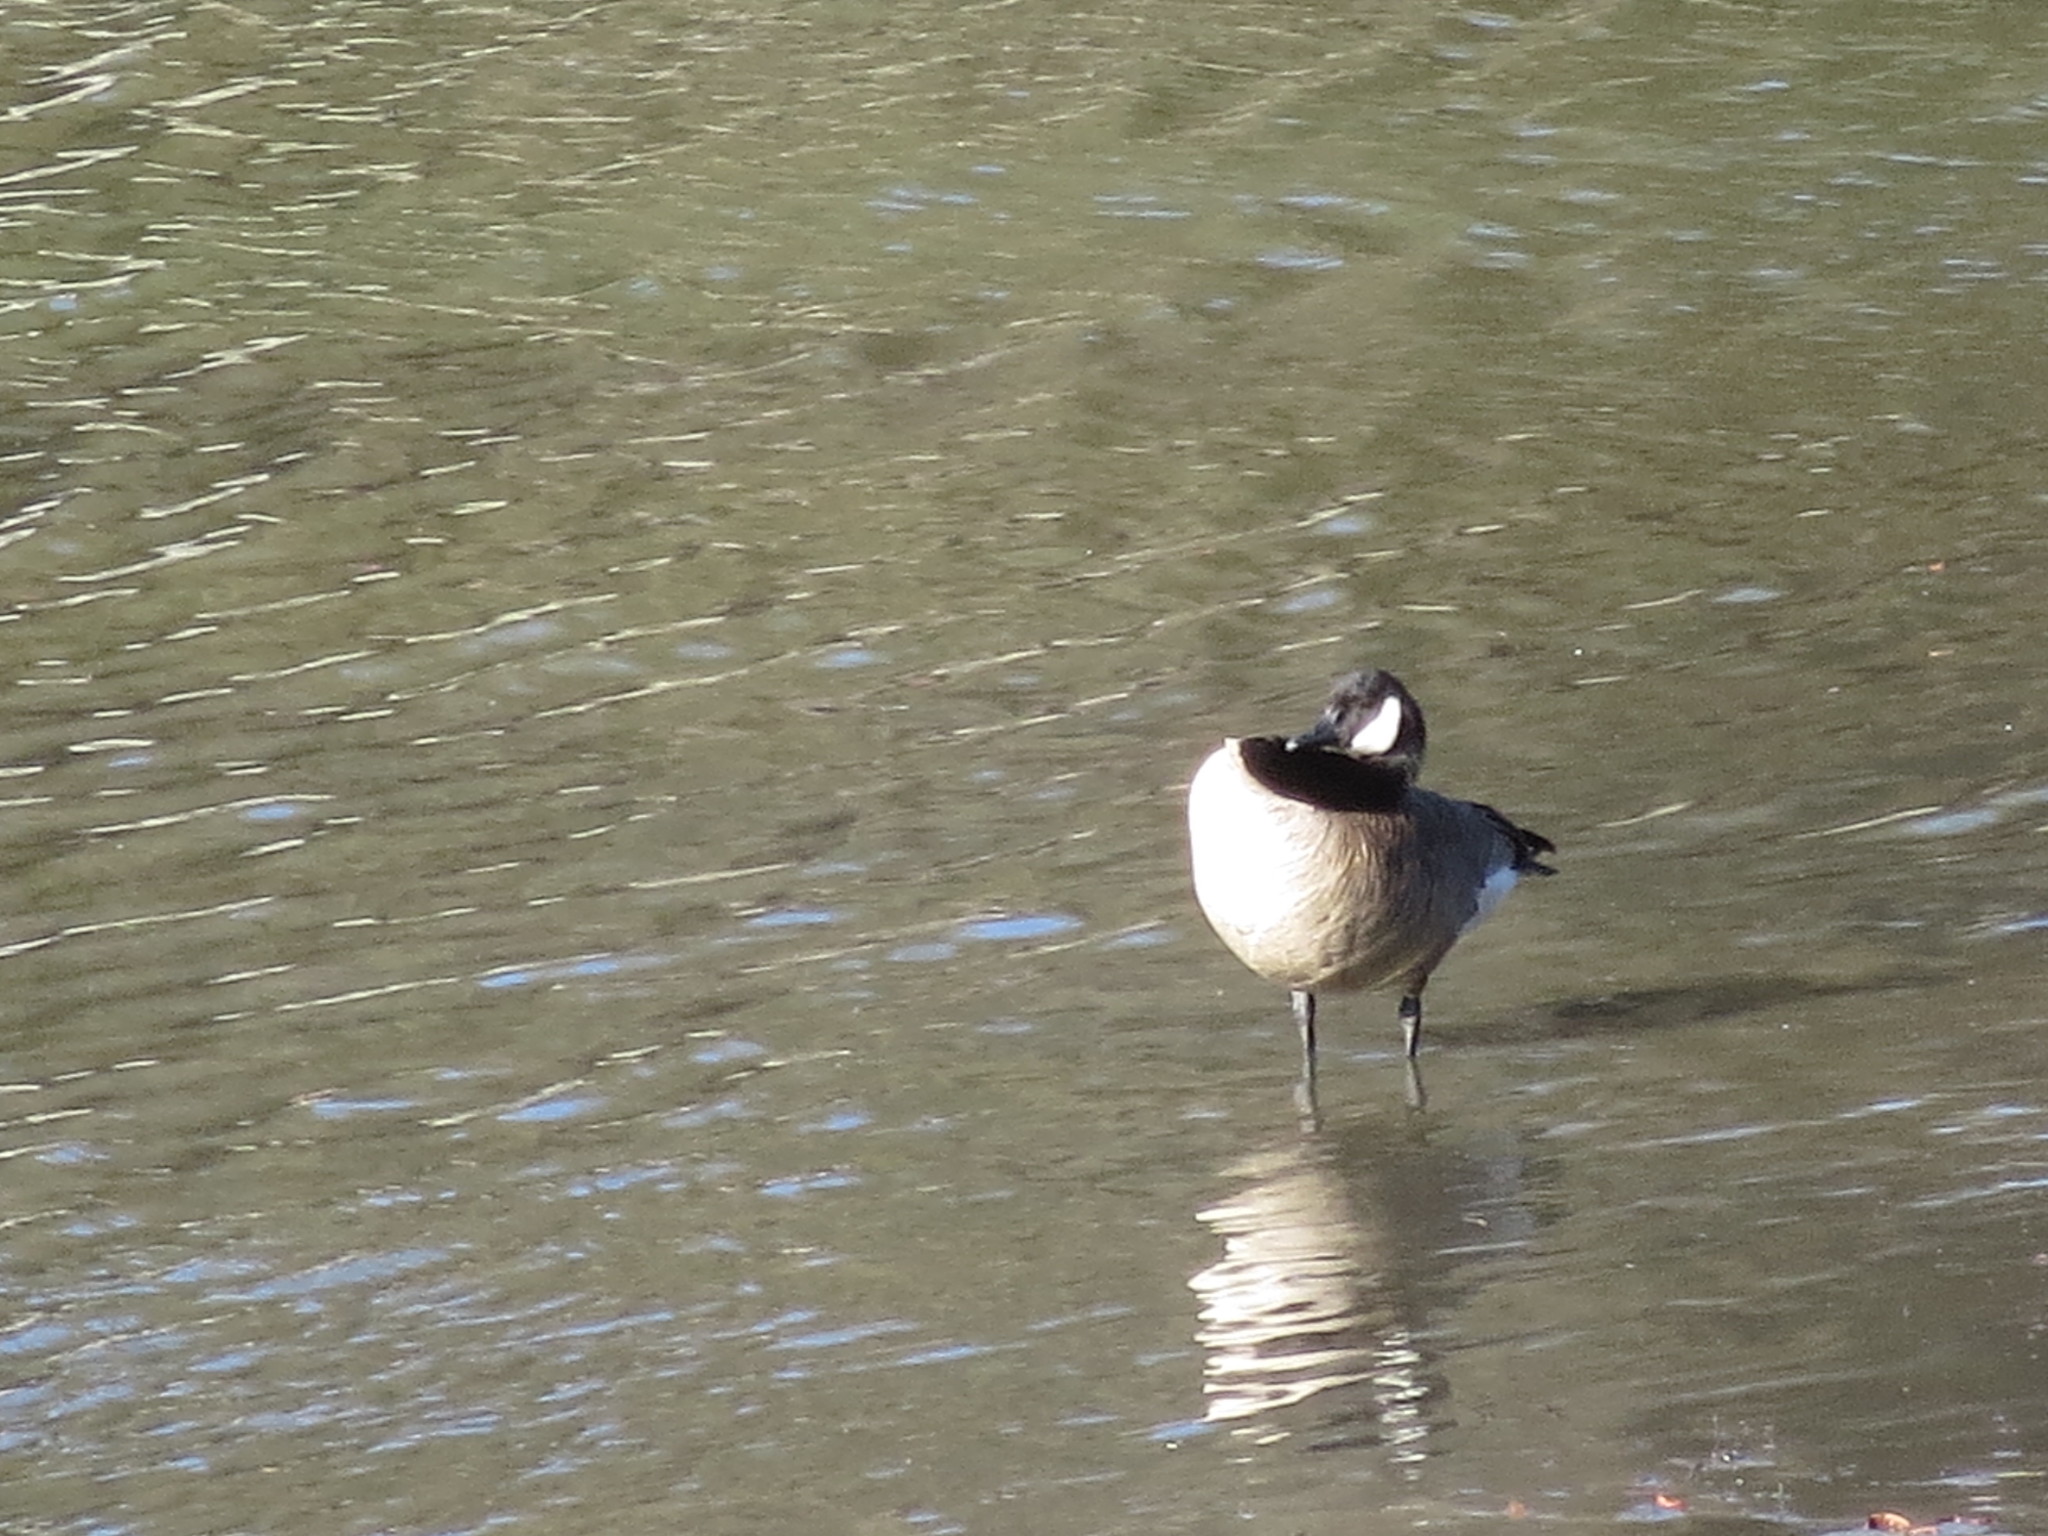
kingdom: Animalia
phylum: Chordata
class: Aves
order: Anseriformes
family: Anatidae
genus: Branta
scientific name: Branta canadensis
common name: Canada goose
